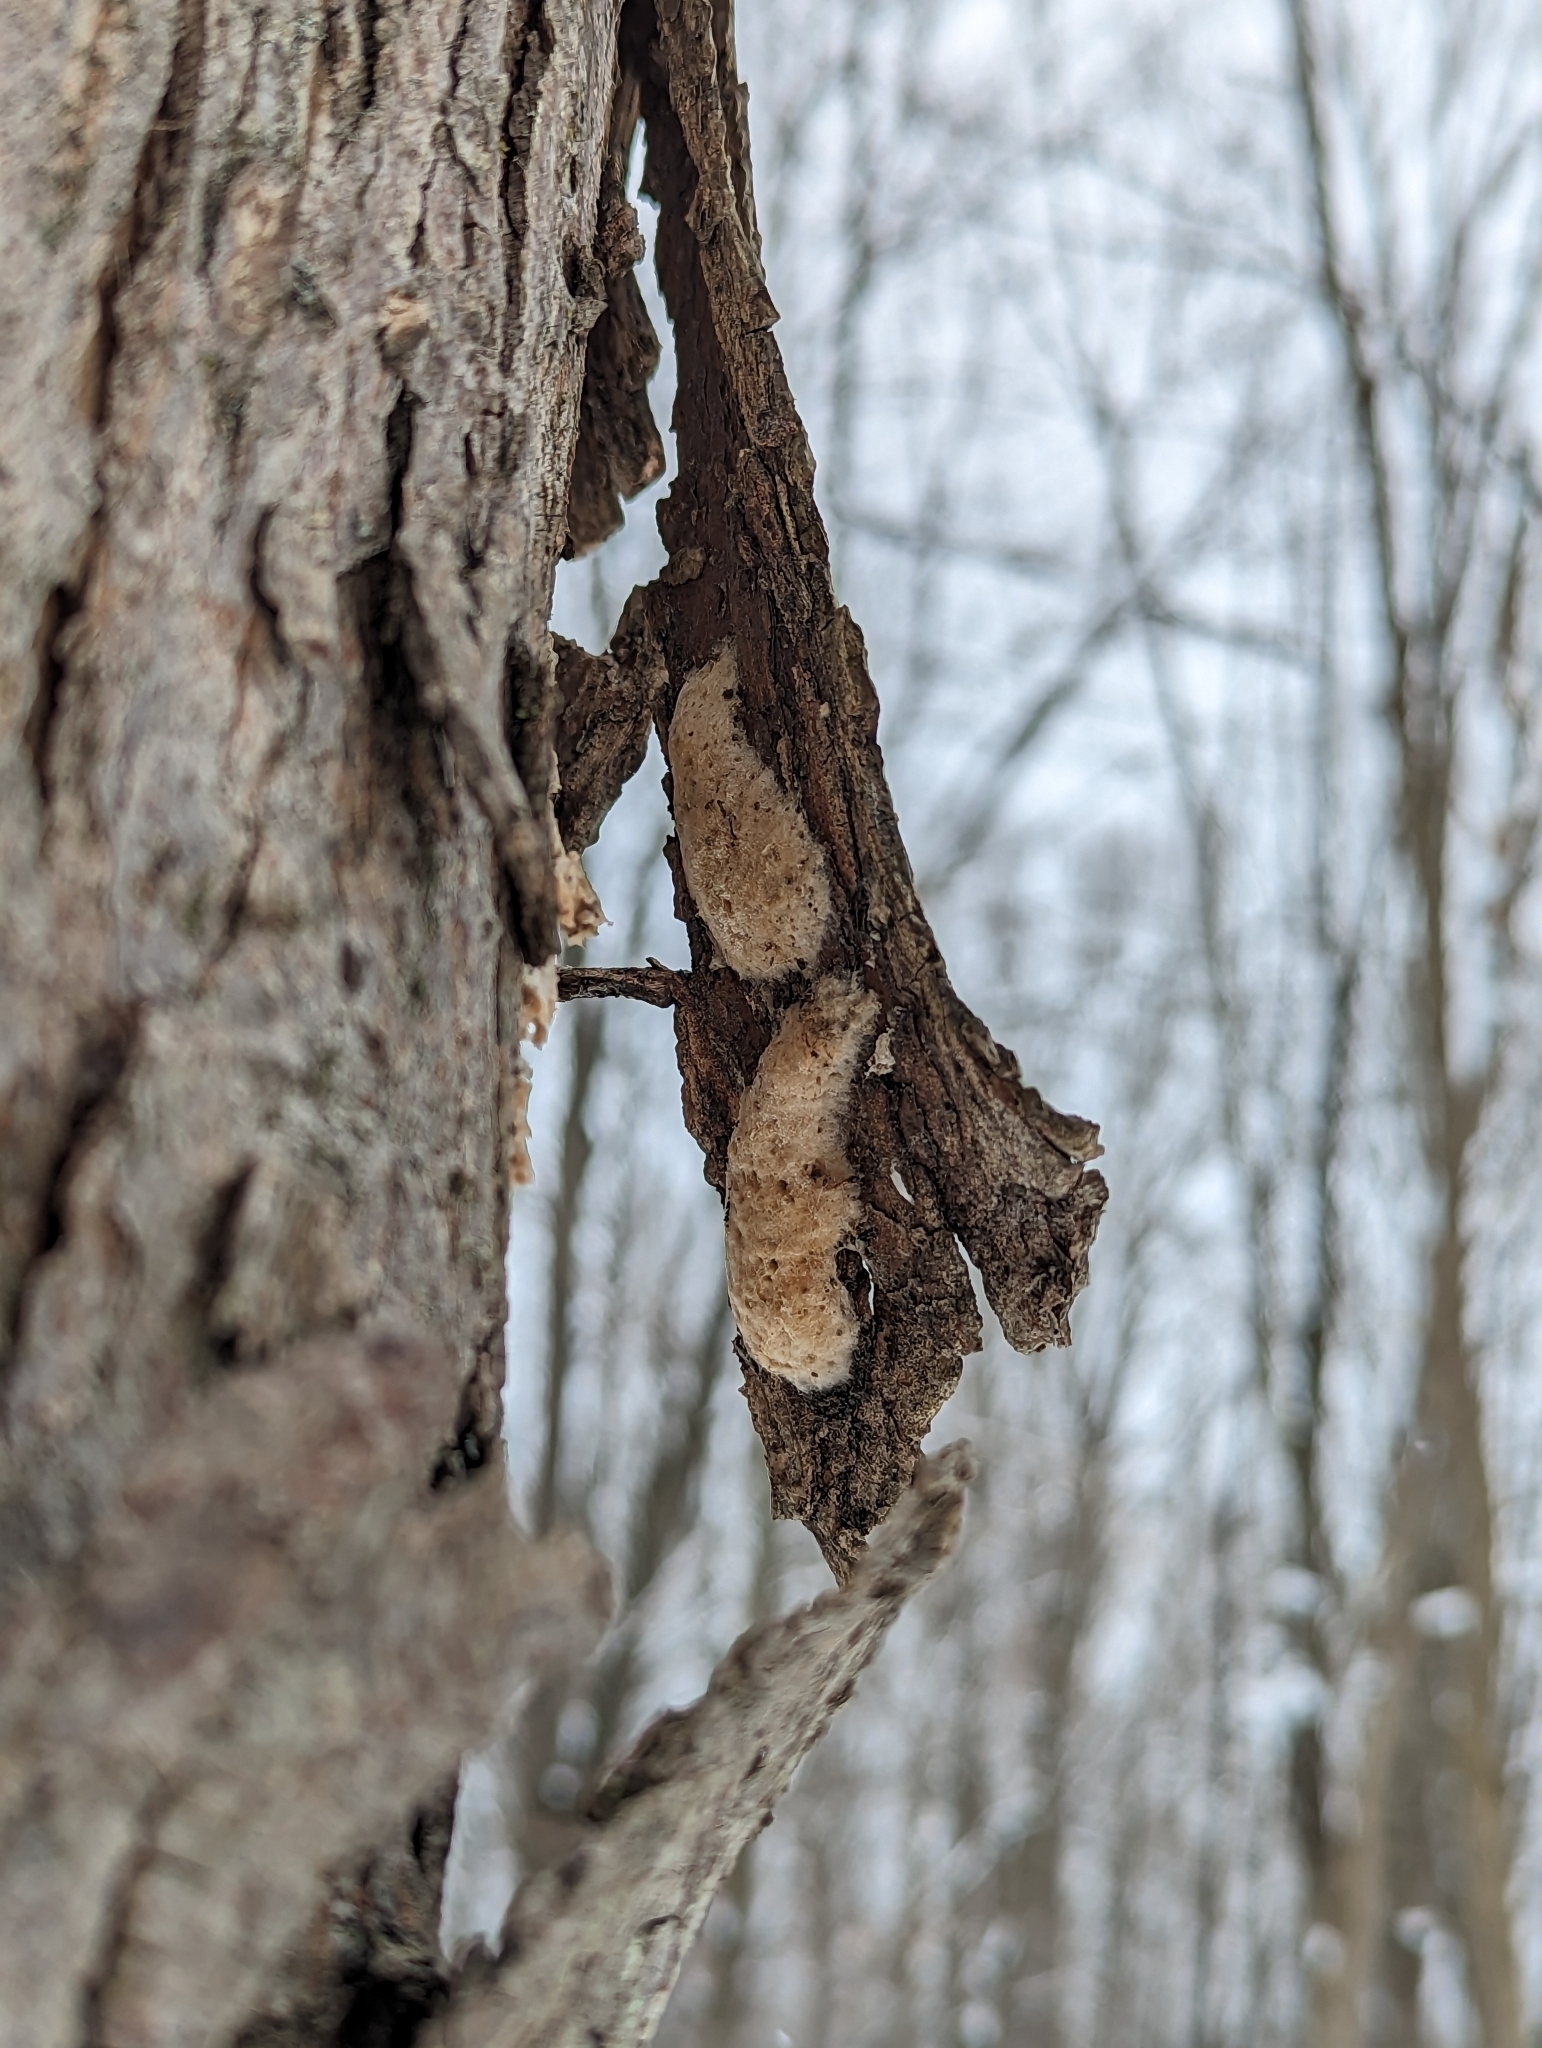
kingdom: Animalia
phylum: Arthropoda
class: Insecta
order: Lepidoptera
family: Erebidae
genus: Lymantria
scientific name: Lymantria dispar
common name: Gypsy moth
